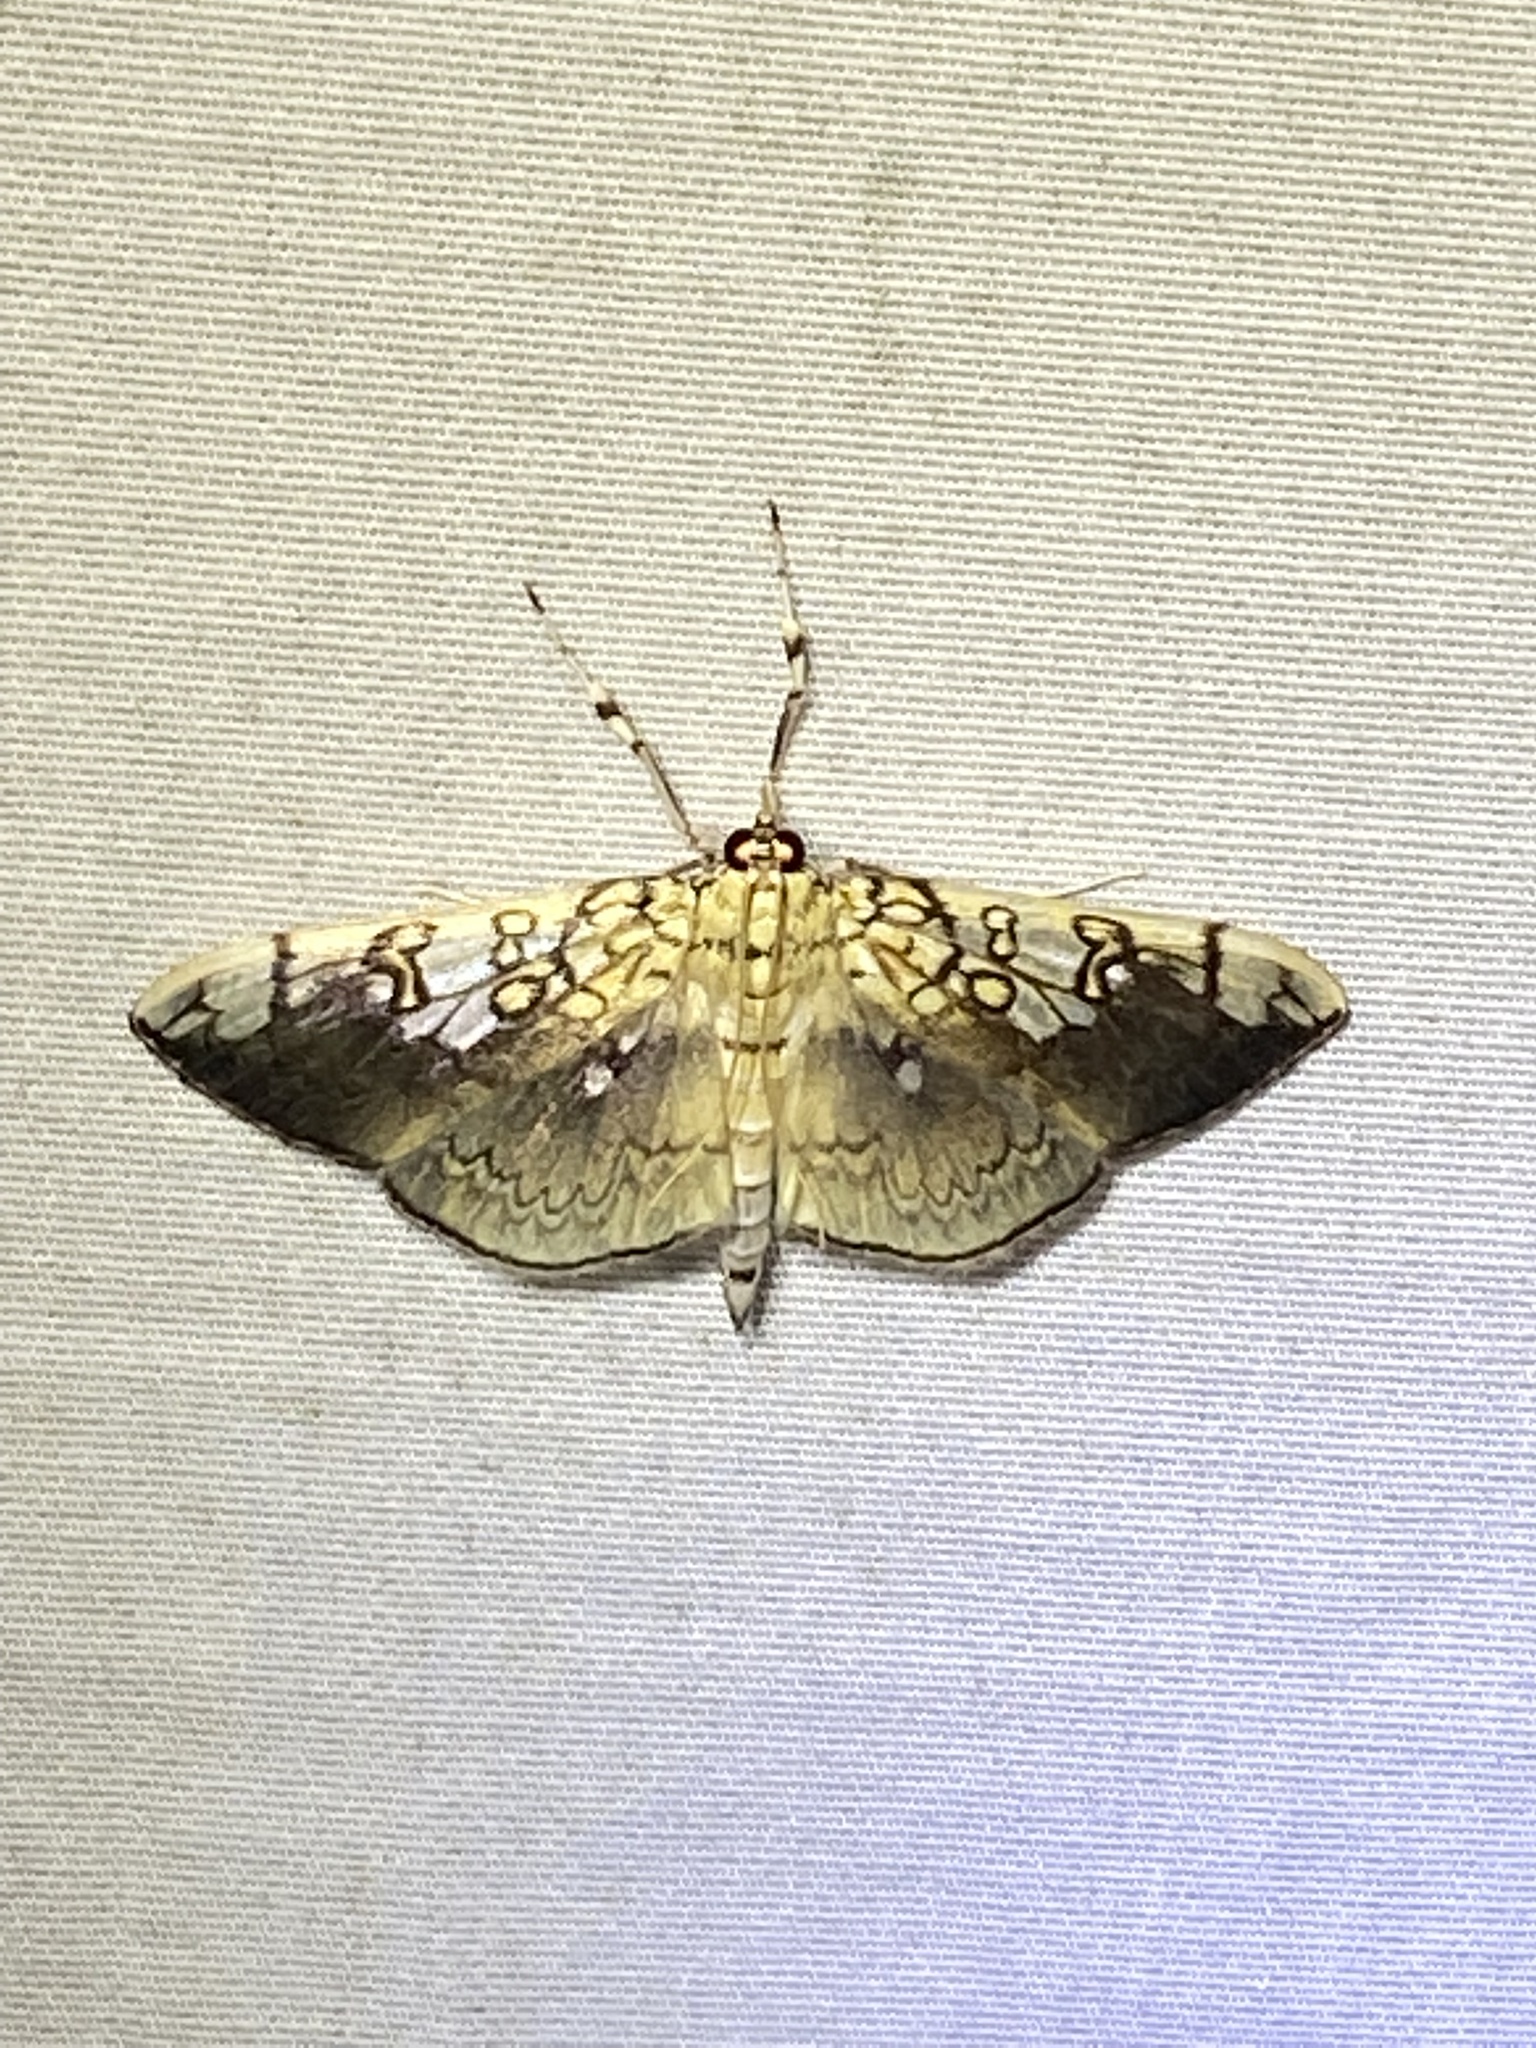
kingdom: Animalia
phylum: Arthropoda
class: Insecta
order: Lepidoptera
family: Crambidae
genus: Pantographa
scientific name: Pantographa limata
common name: Basswood leafroller moth
